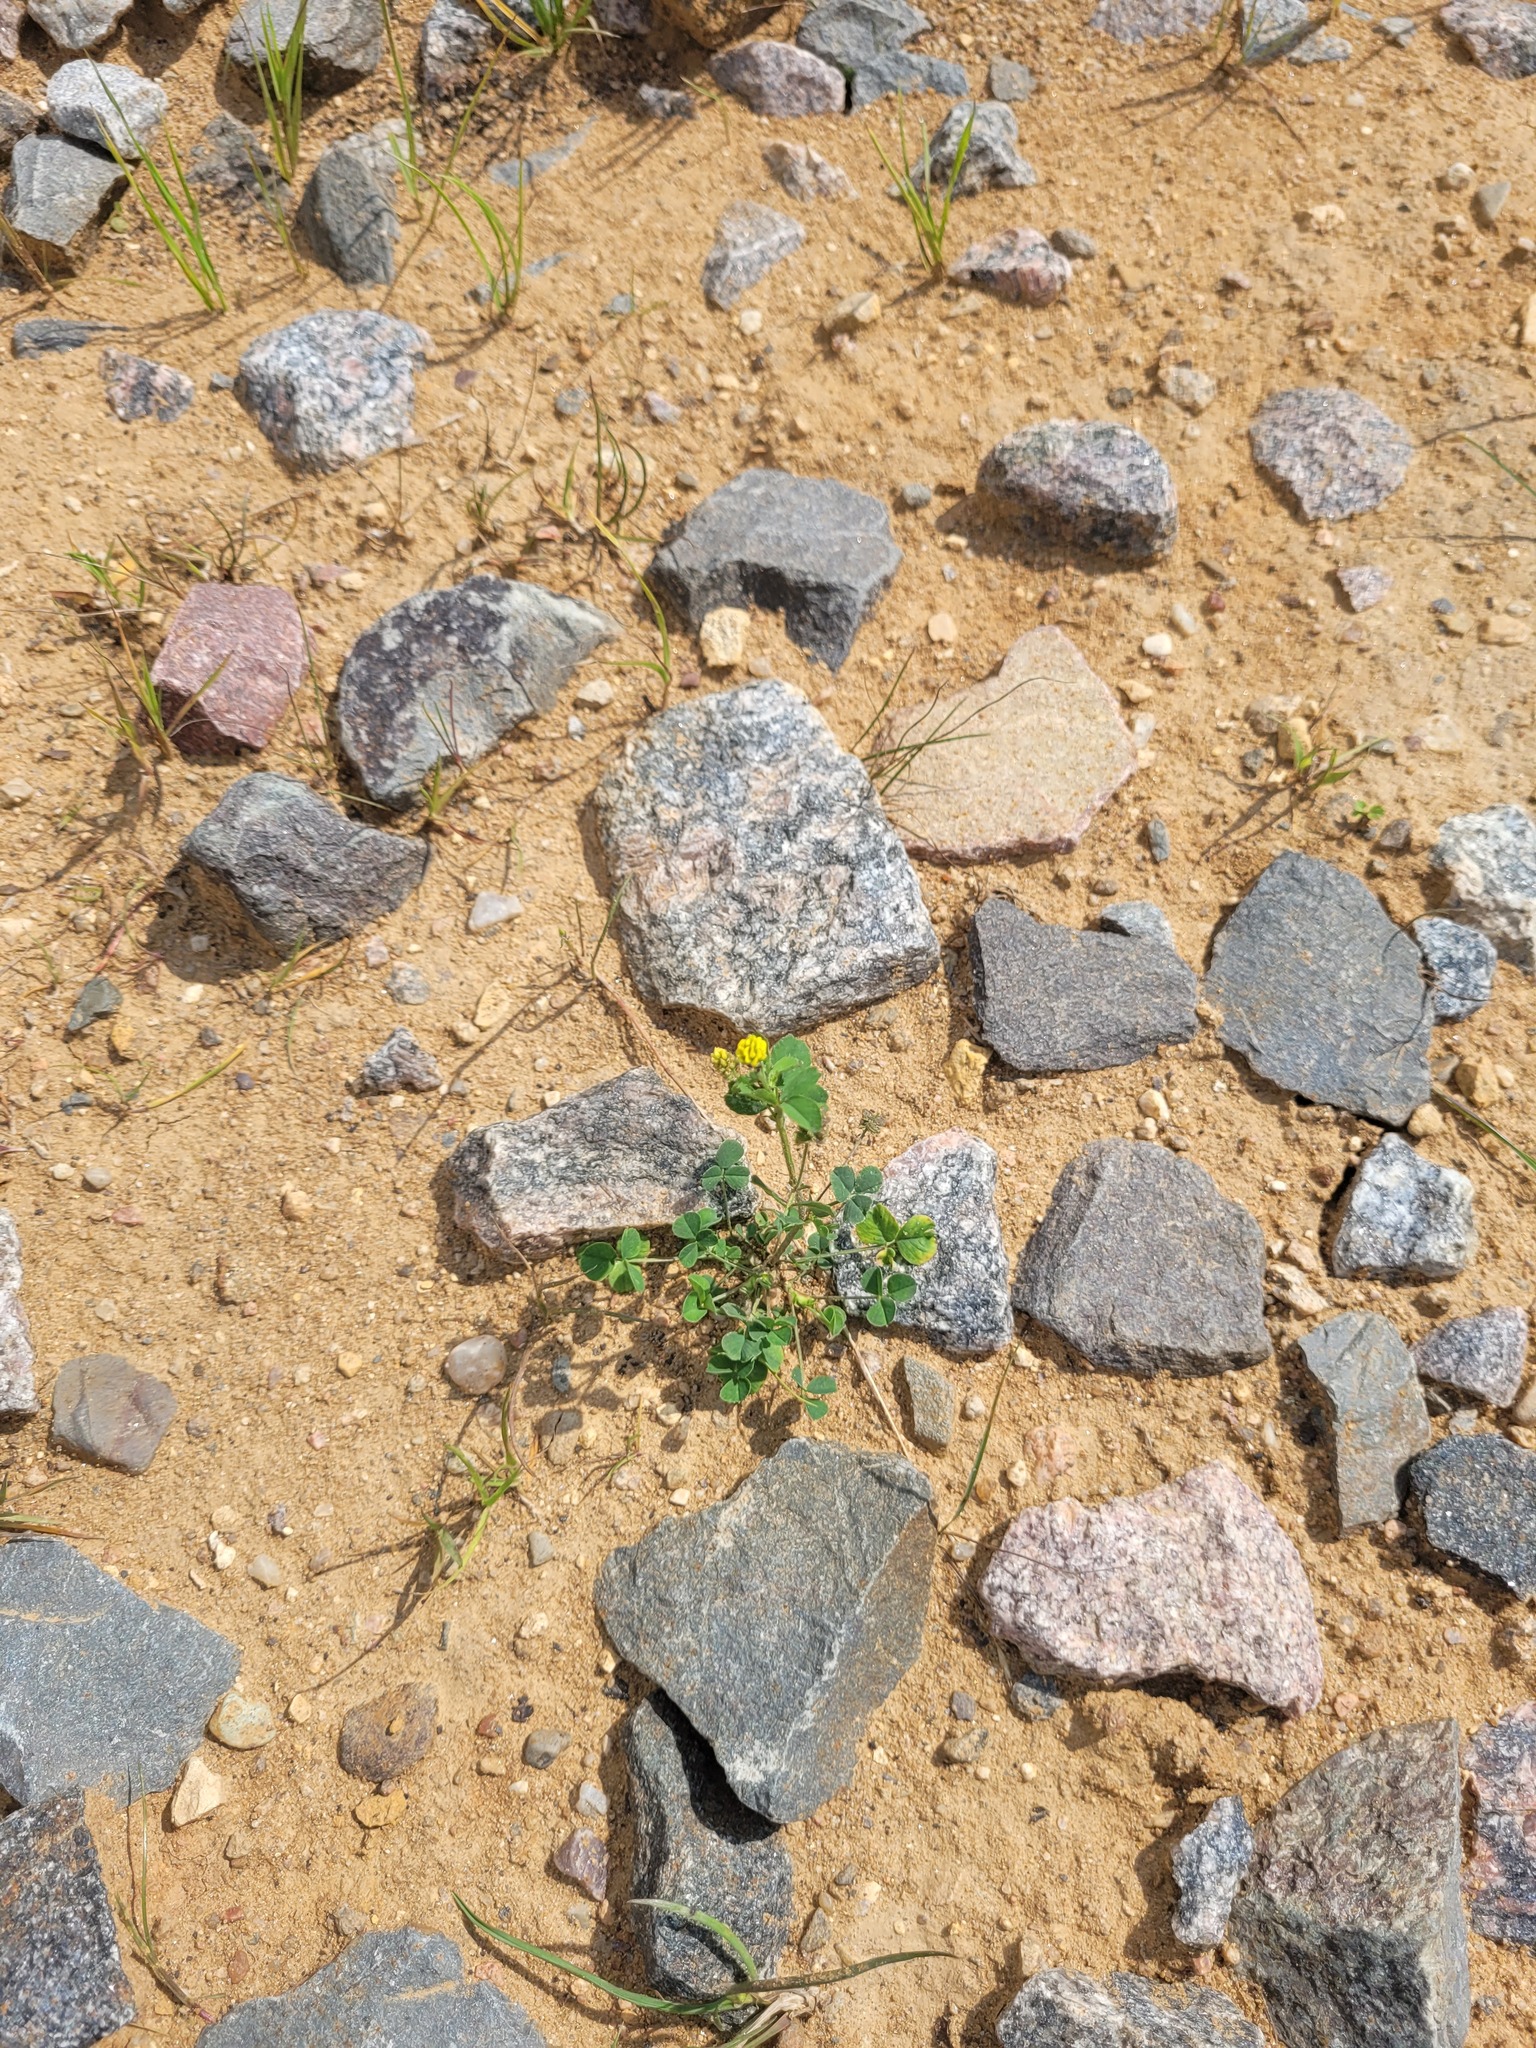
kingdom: Plantae
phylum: Tracheophyta
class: Magnoliopsida
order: Fabales
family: Fabaceae
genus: Medicago
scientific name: Medicago lupulina
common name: Black medick
